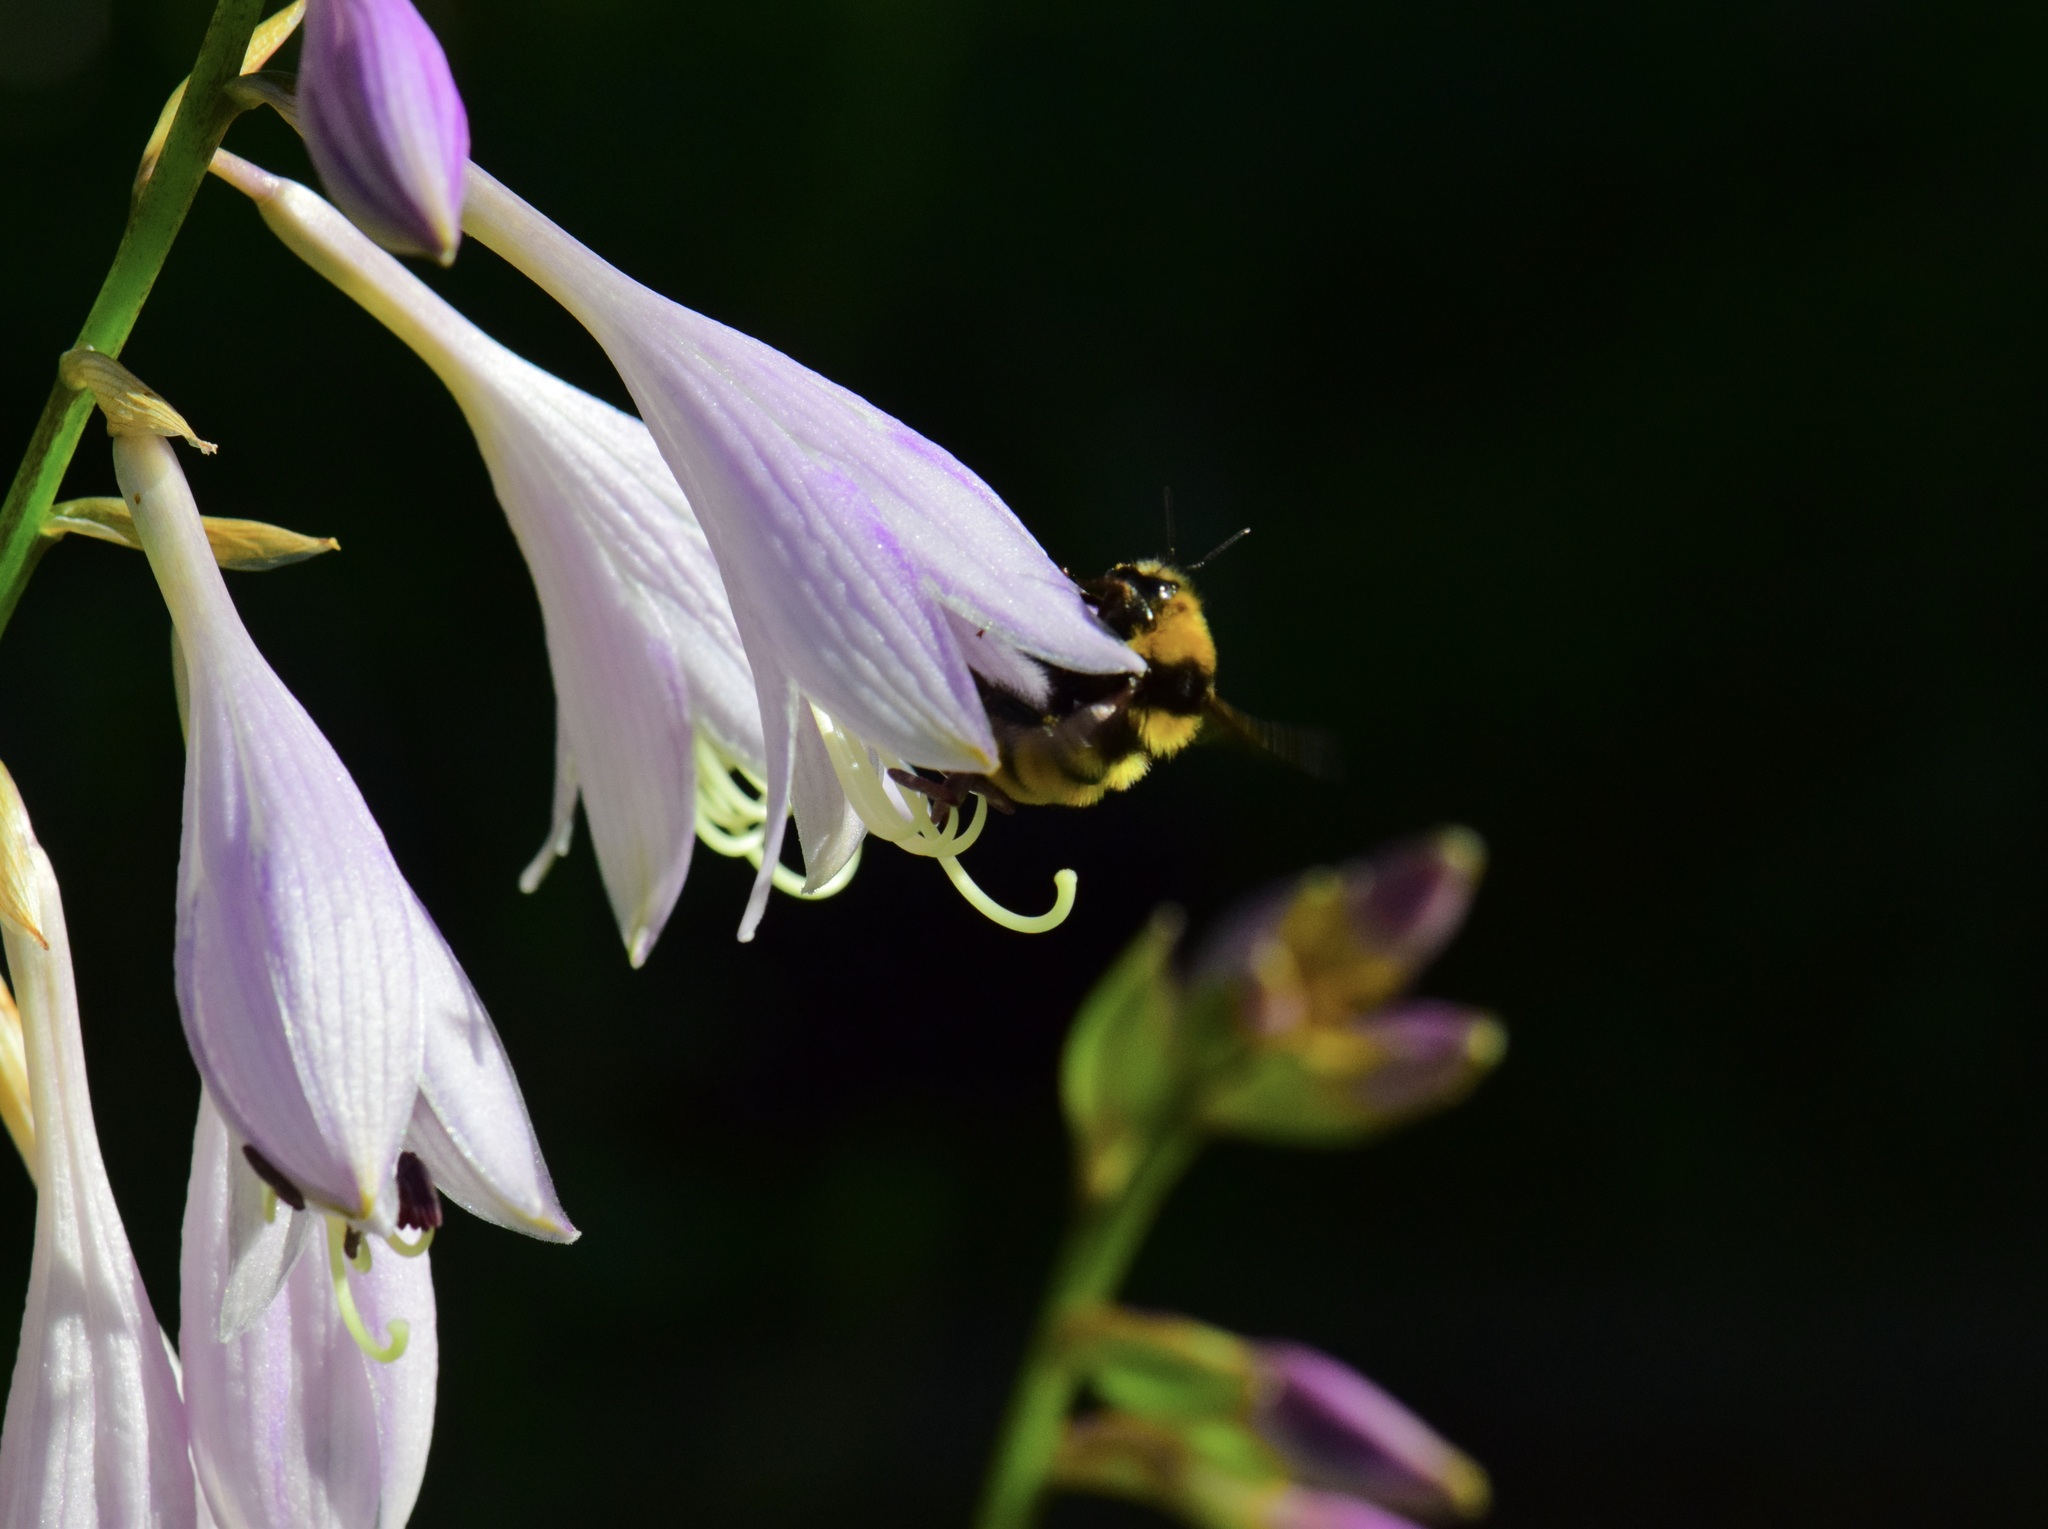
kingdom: Animalia
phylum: Arthropoda
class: Insecta
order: Hymenoptera
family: Apidae
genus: Bombus
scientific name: Bombus borealis
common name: Northern amber bumble bee
